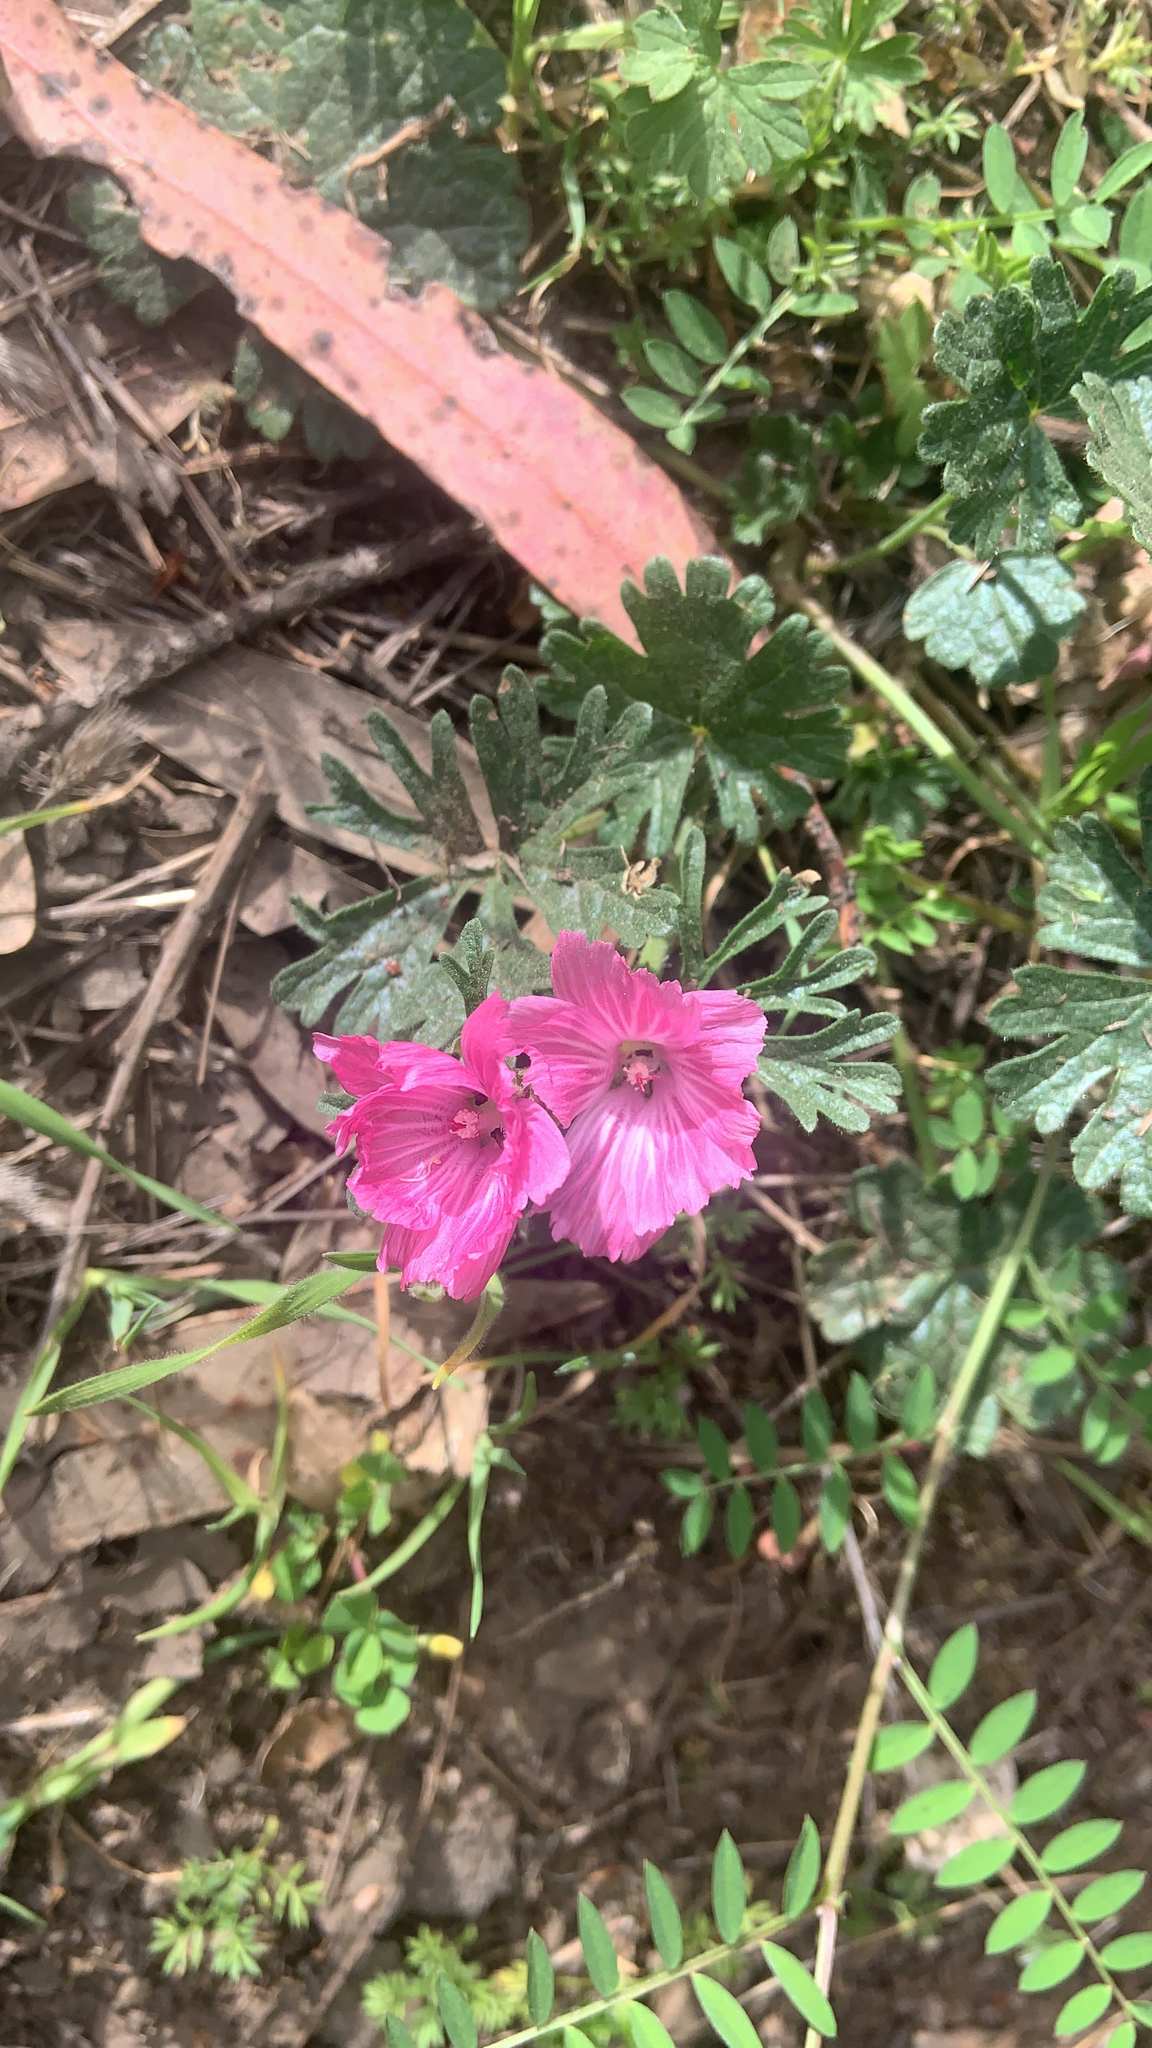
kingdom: Plantae
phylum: Tracheophyta
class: Magnoliopsida
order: Malvales
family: Malvaceae
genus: Sidalcea
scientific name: Sidalcea malviflora
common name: Greek mallow
